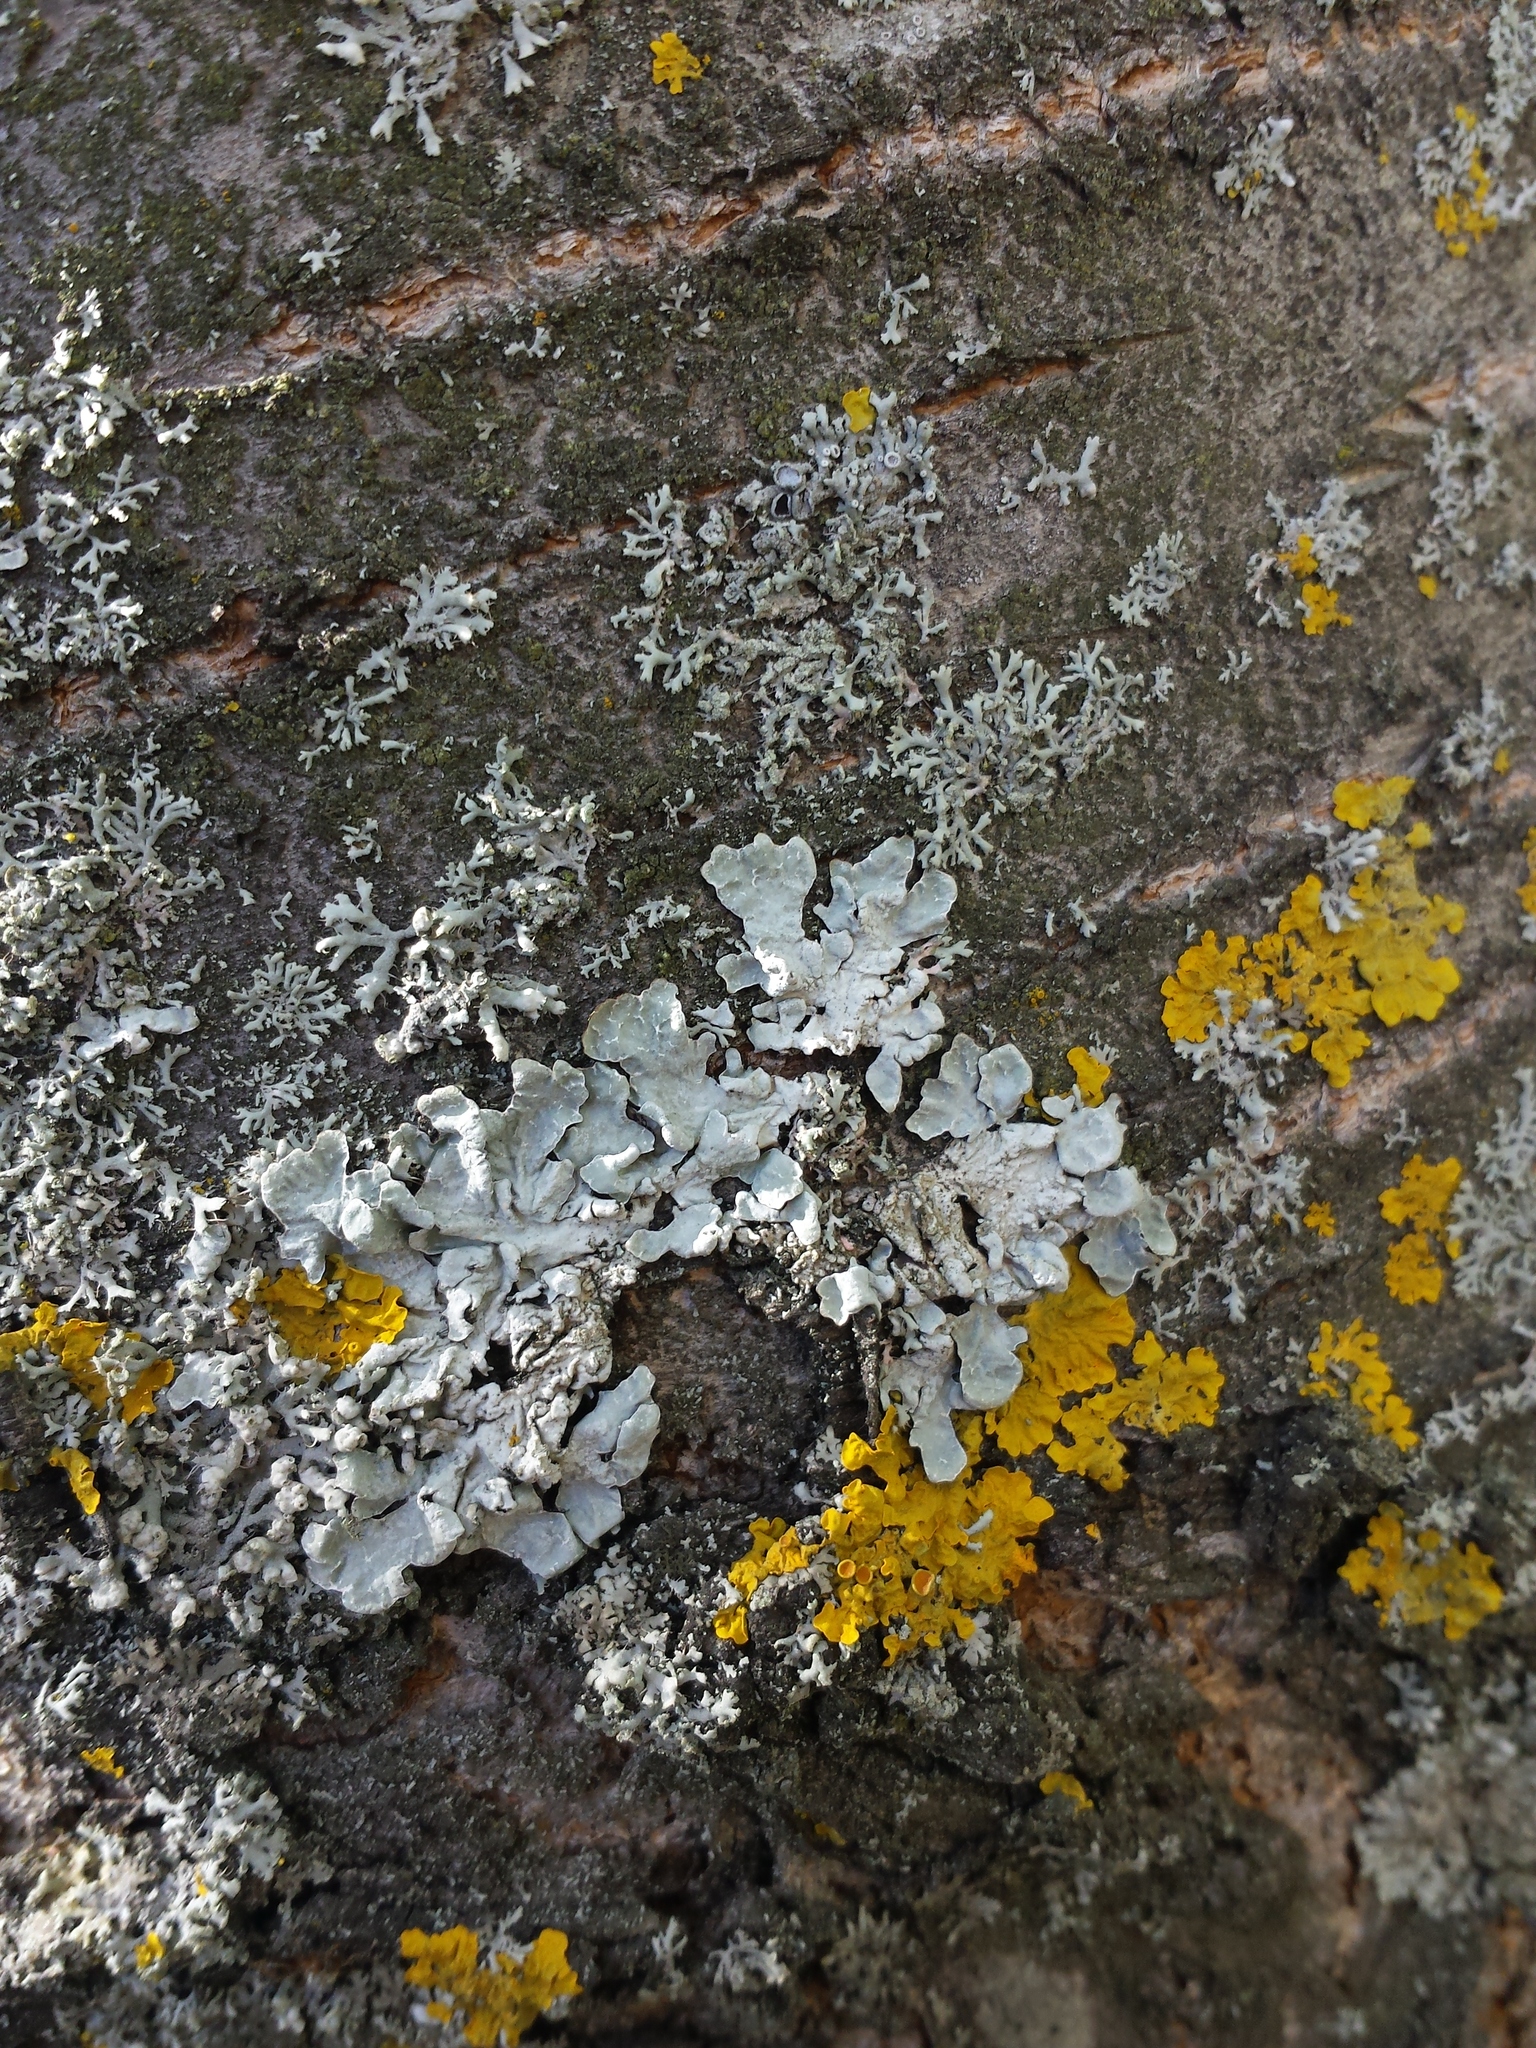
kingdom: Fungi
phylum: Ascomycota
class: Lecanoromycetes
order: Lecanorales
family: Parmeliaceae
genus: Parmelia
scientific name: Parmelia sulcata
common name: Netted shield lichen
